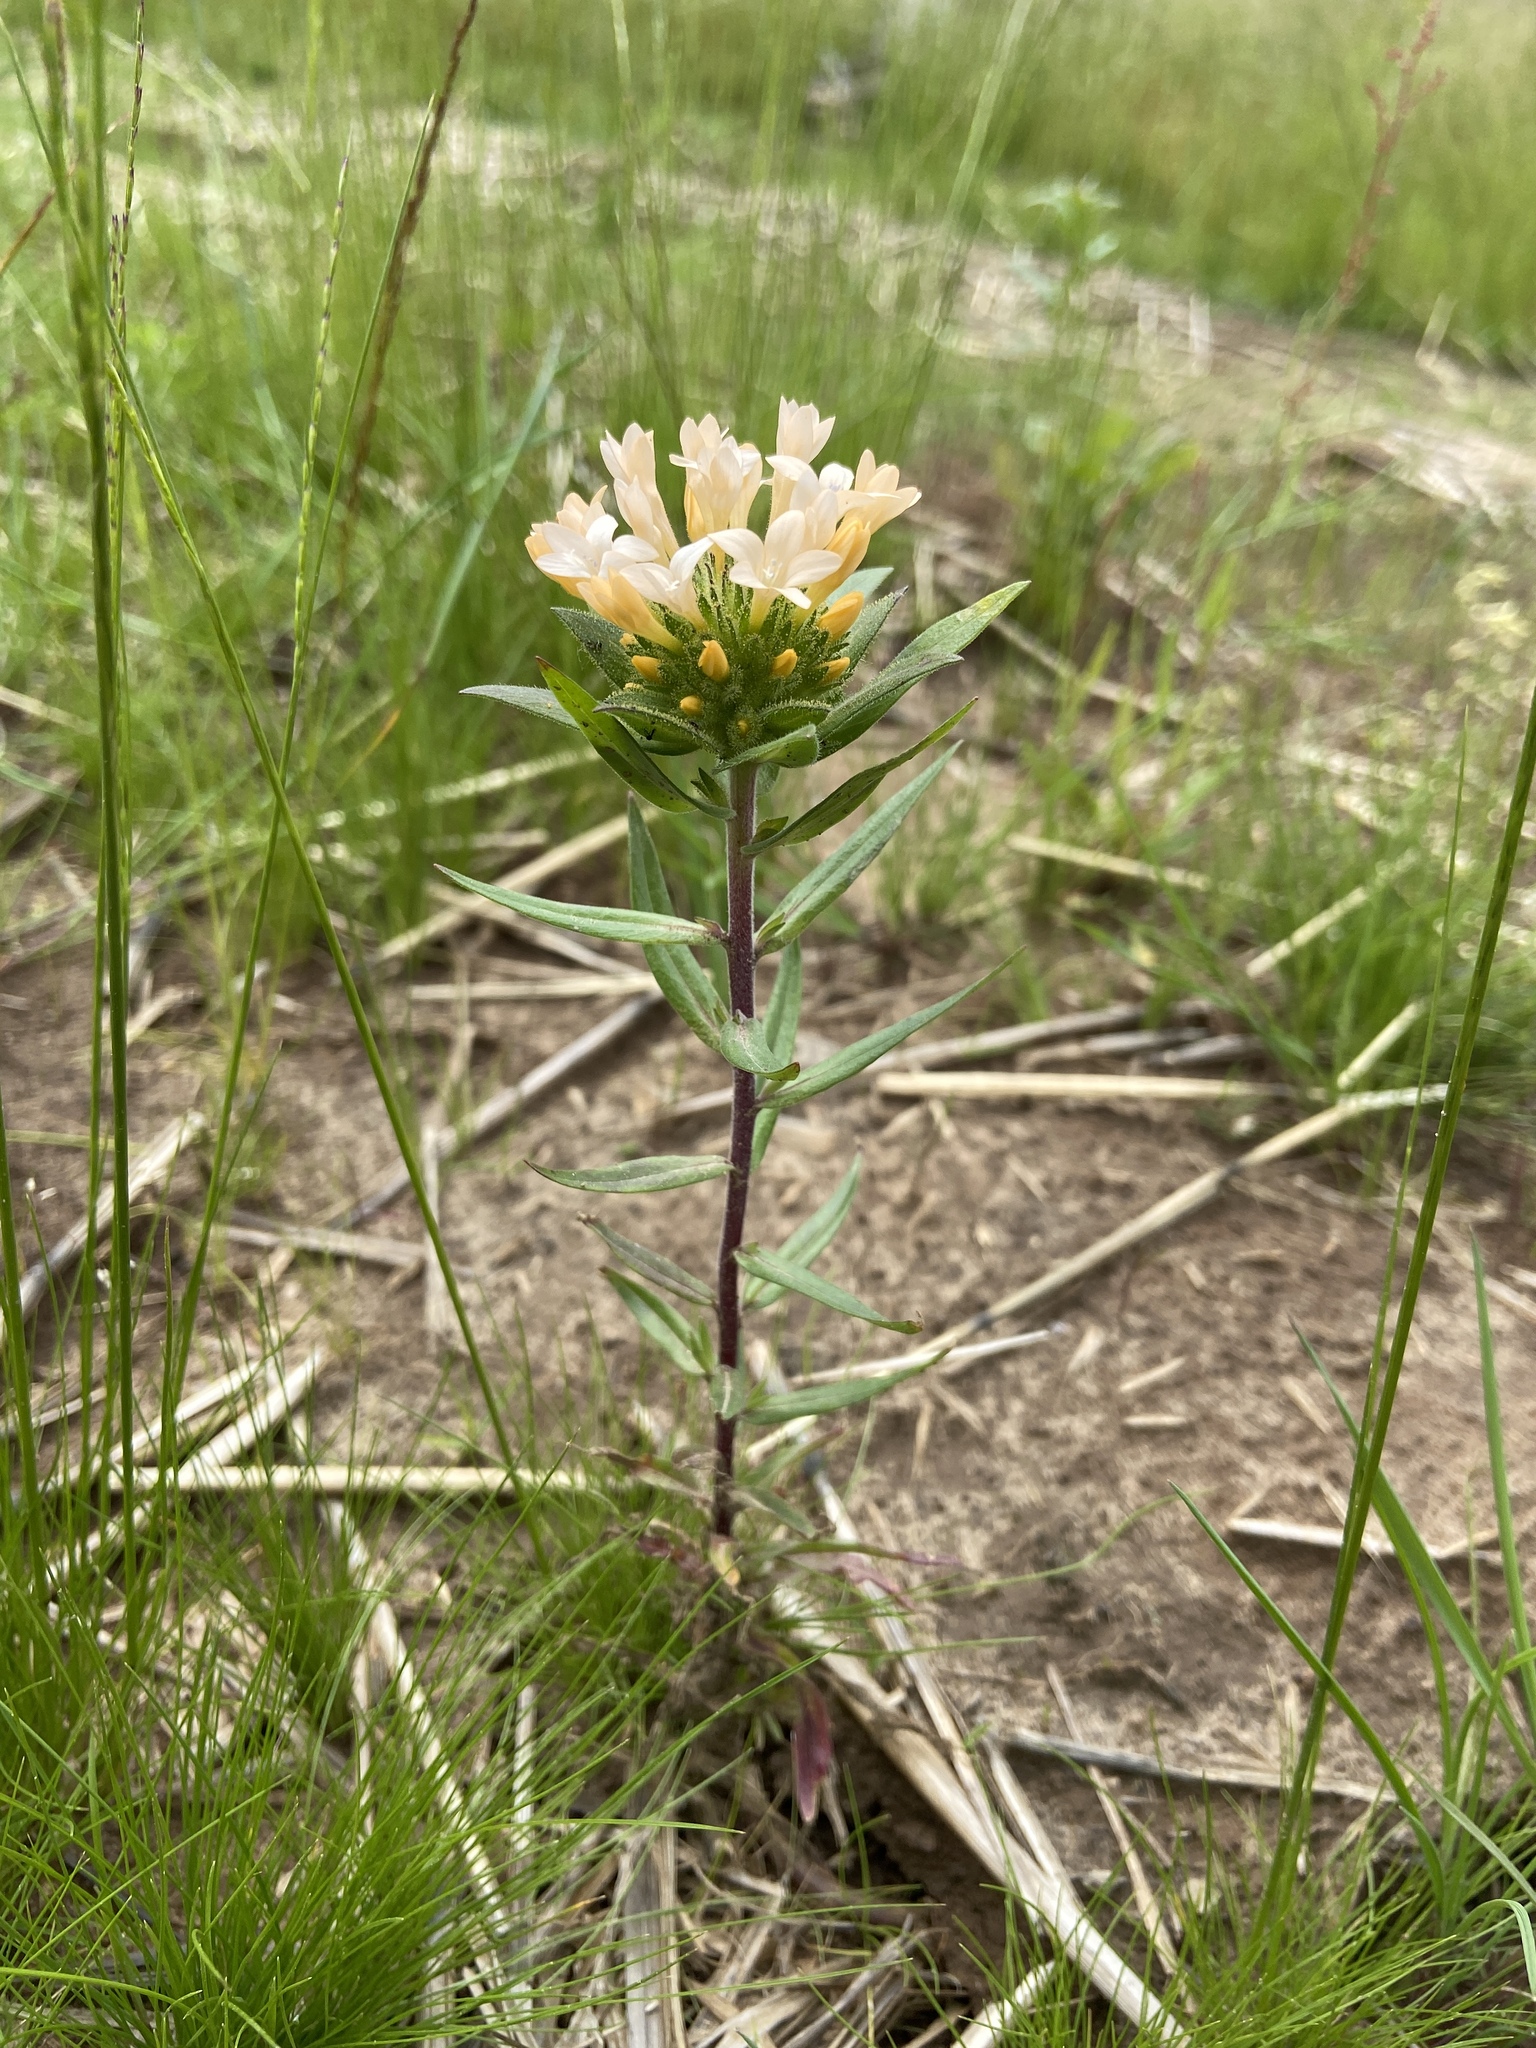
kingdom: Plantae
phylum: Tracheophyta
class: Magnoliopsida
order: Ericales
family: Polemoniaceae
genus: Collomia
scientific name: Collomia grandiflora
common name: California strawflower
